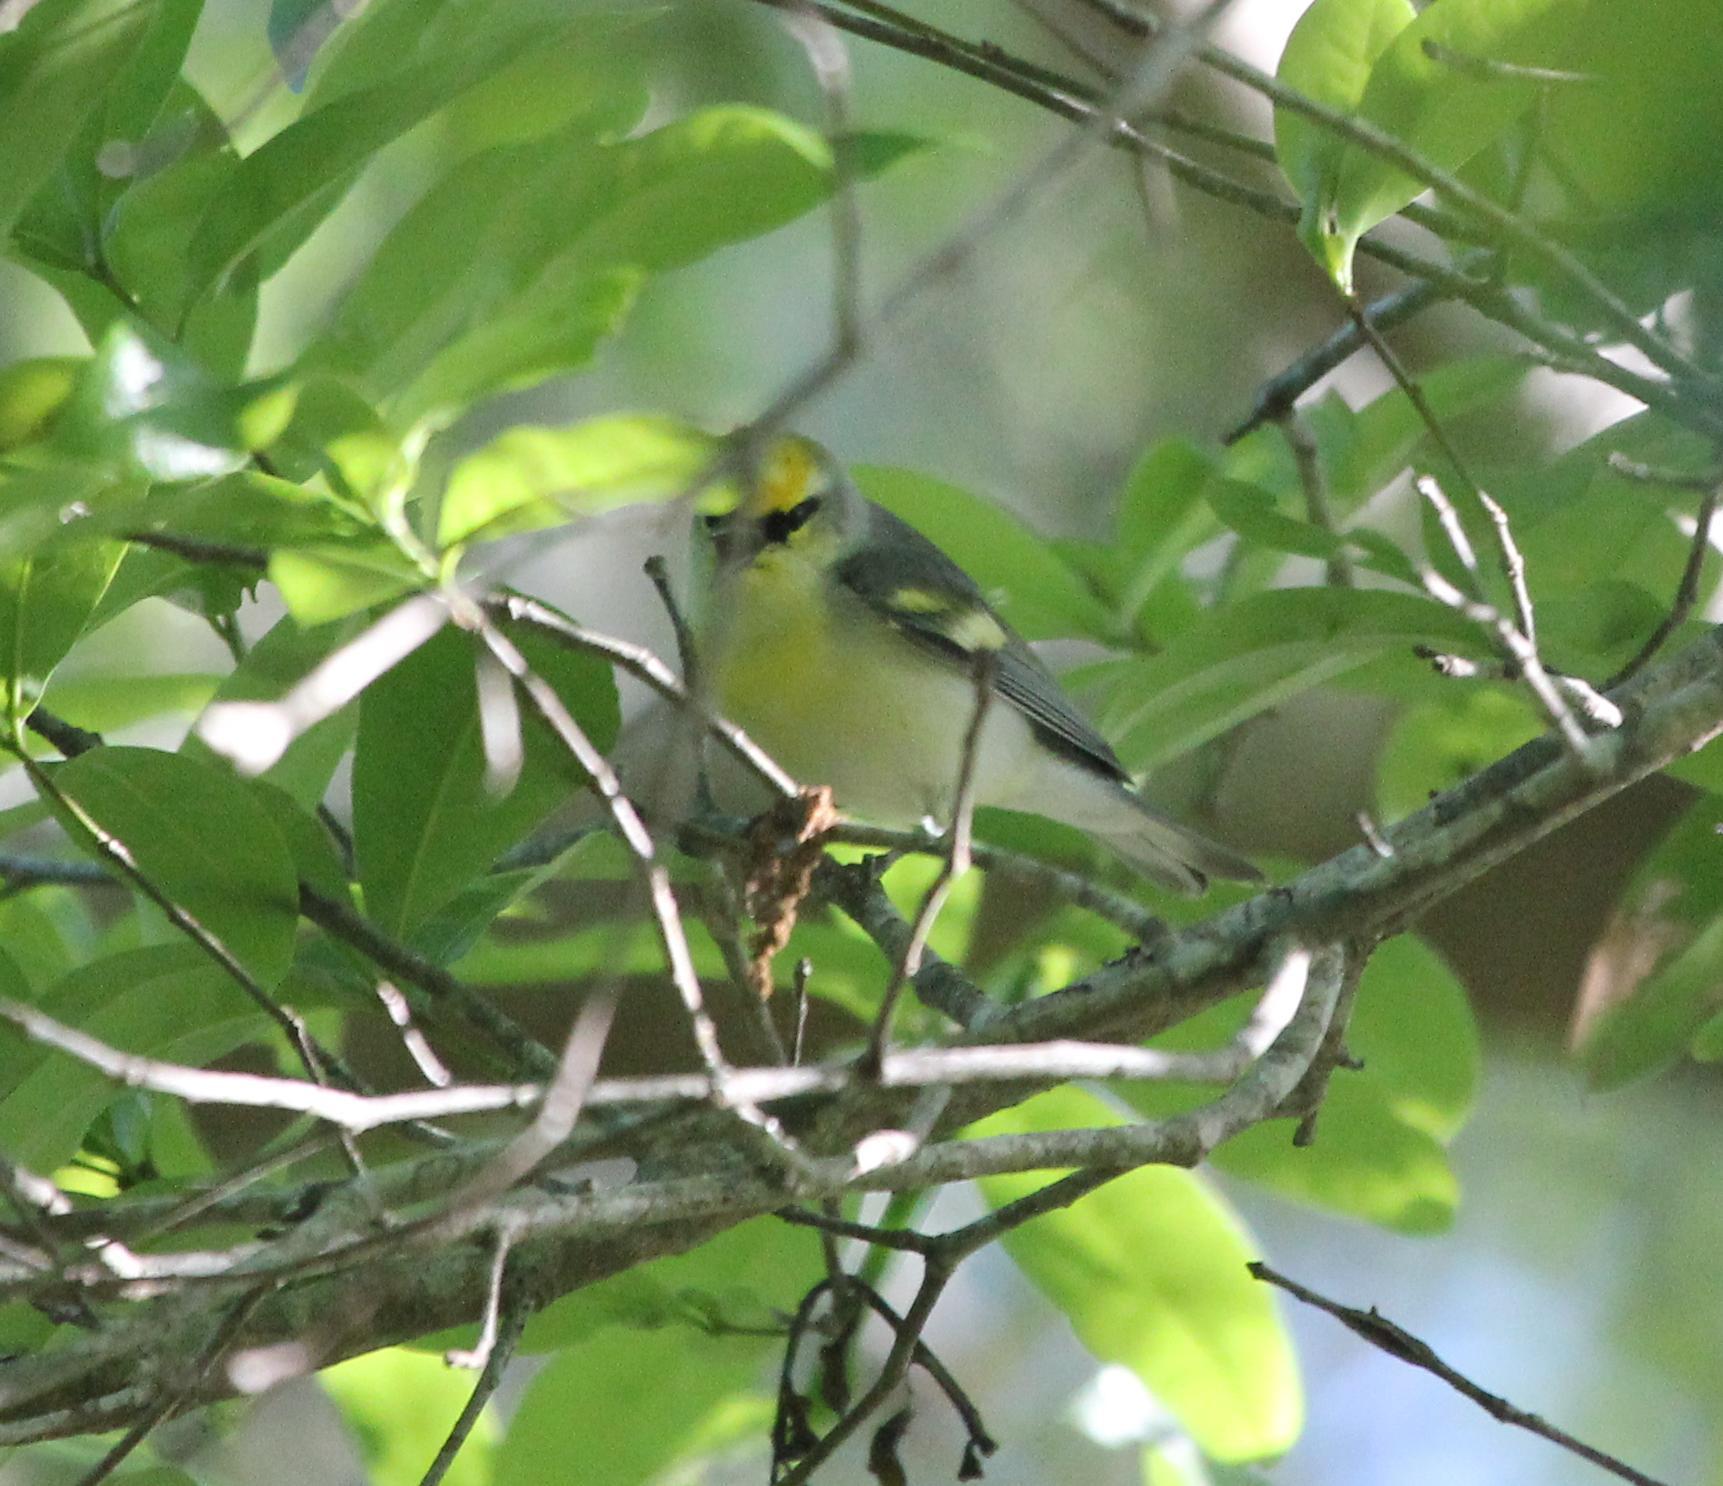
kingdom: Animalia
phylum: Chordata
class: Aves
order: Passeriformes
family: Parulidae
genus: Vermivora
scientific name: Vermivora
